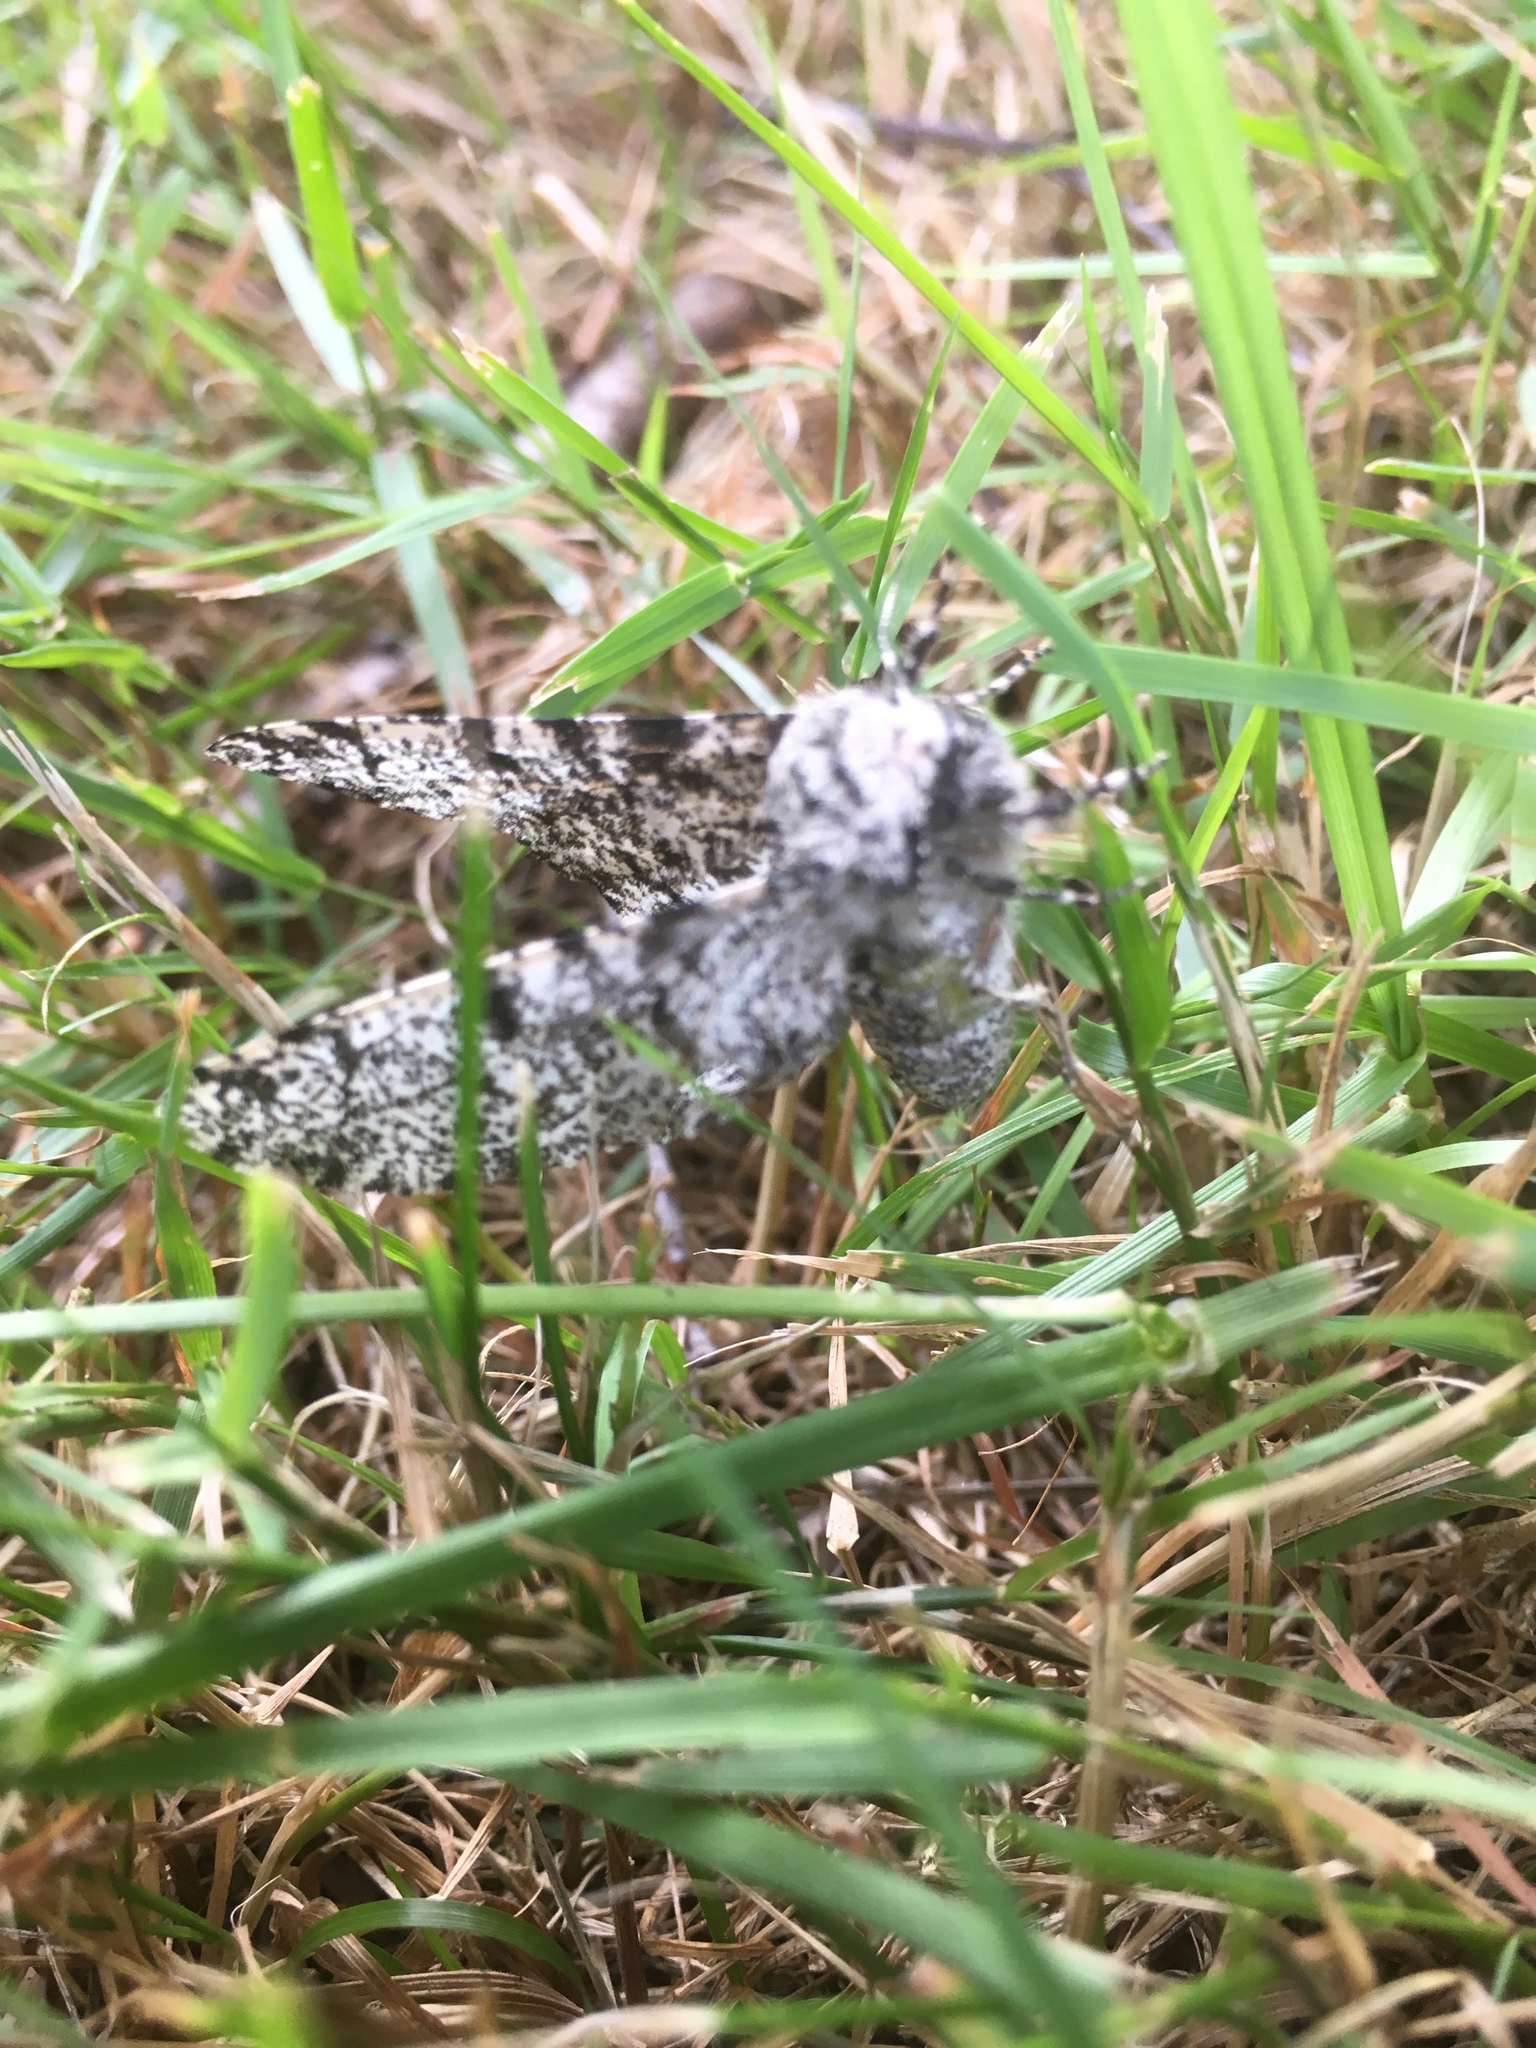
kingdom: Animalia
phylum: Arthropoda
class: Insecta
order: Lepidoptera
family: Geometridae
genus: Biston
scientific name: Biston betularia
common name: Peppered moth
